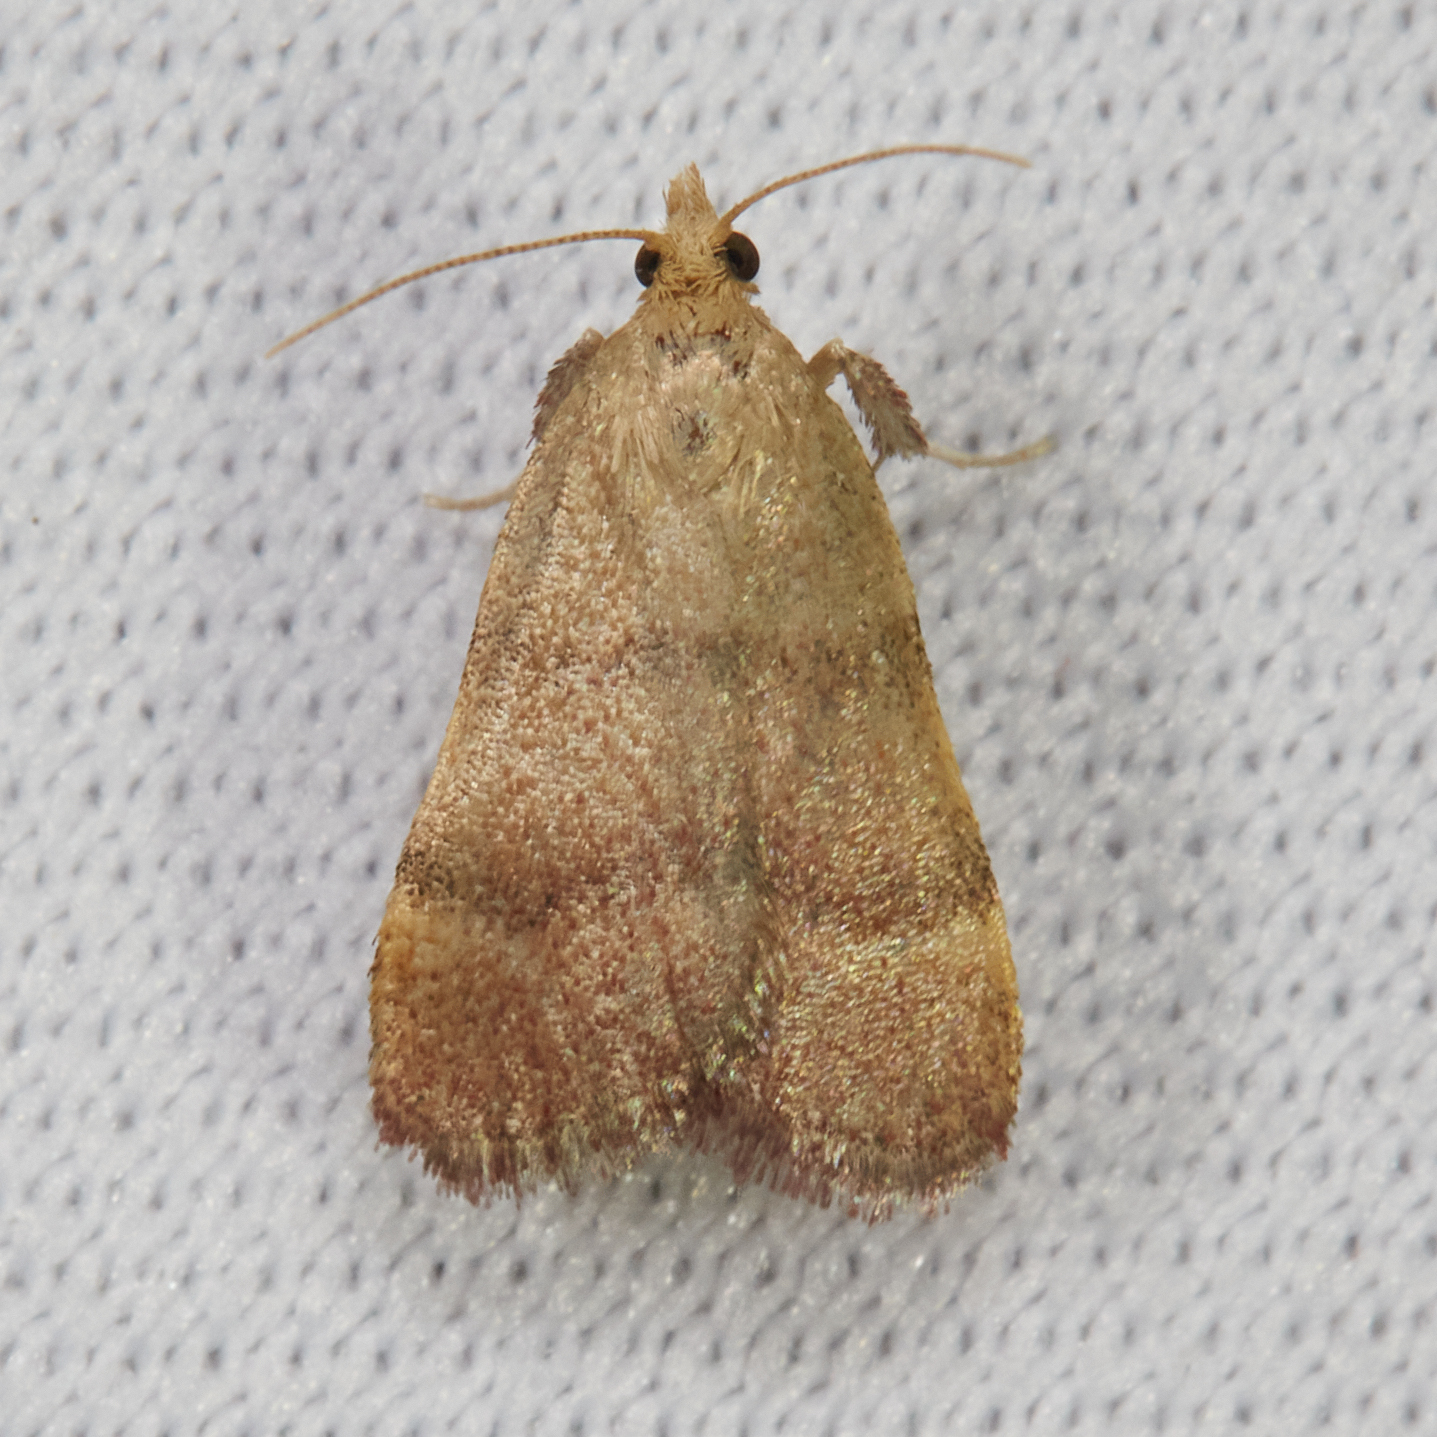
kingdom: Animalia
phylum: Arthropoda
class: Insecta
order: Lepidoptera
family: Pyralidae
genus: Condylolomia
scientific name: Condylolomia participialis
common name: Drab condylolomia moth
